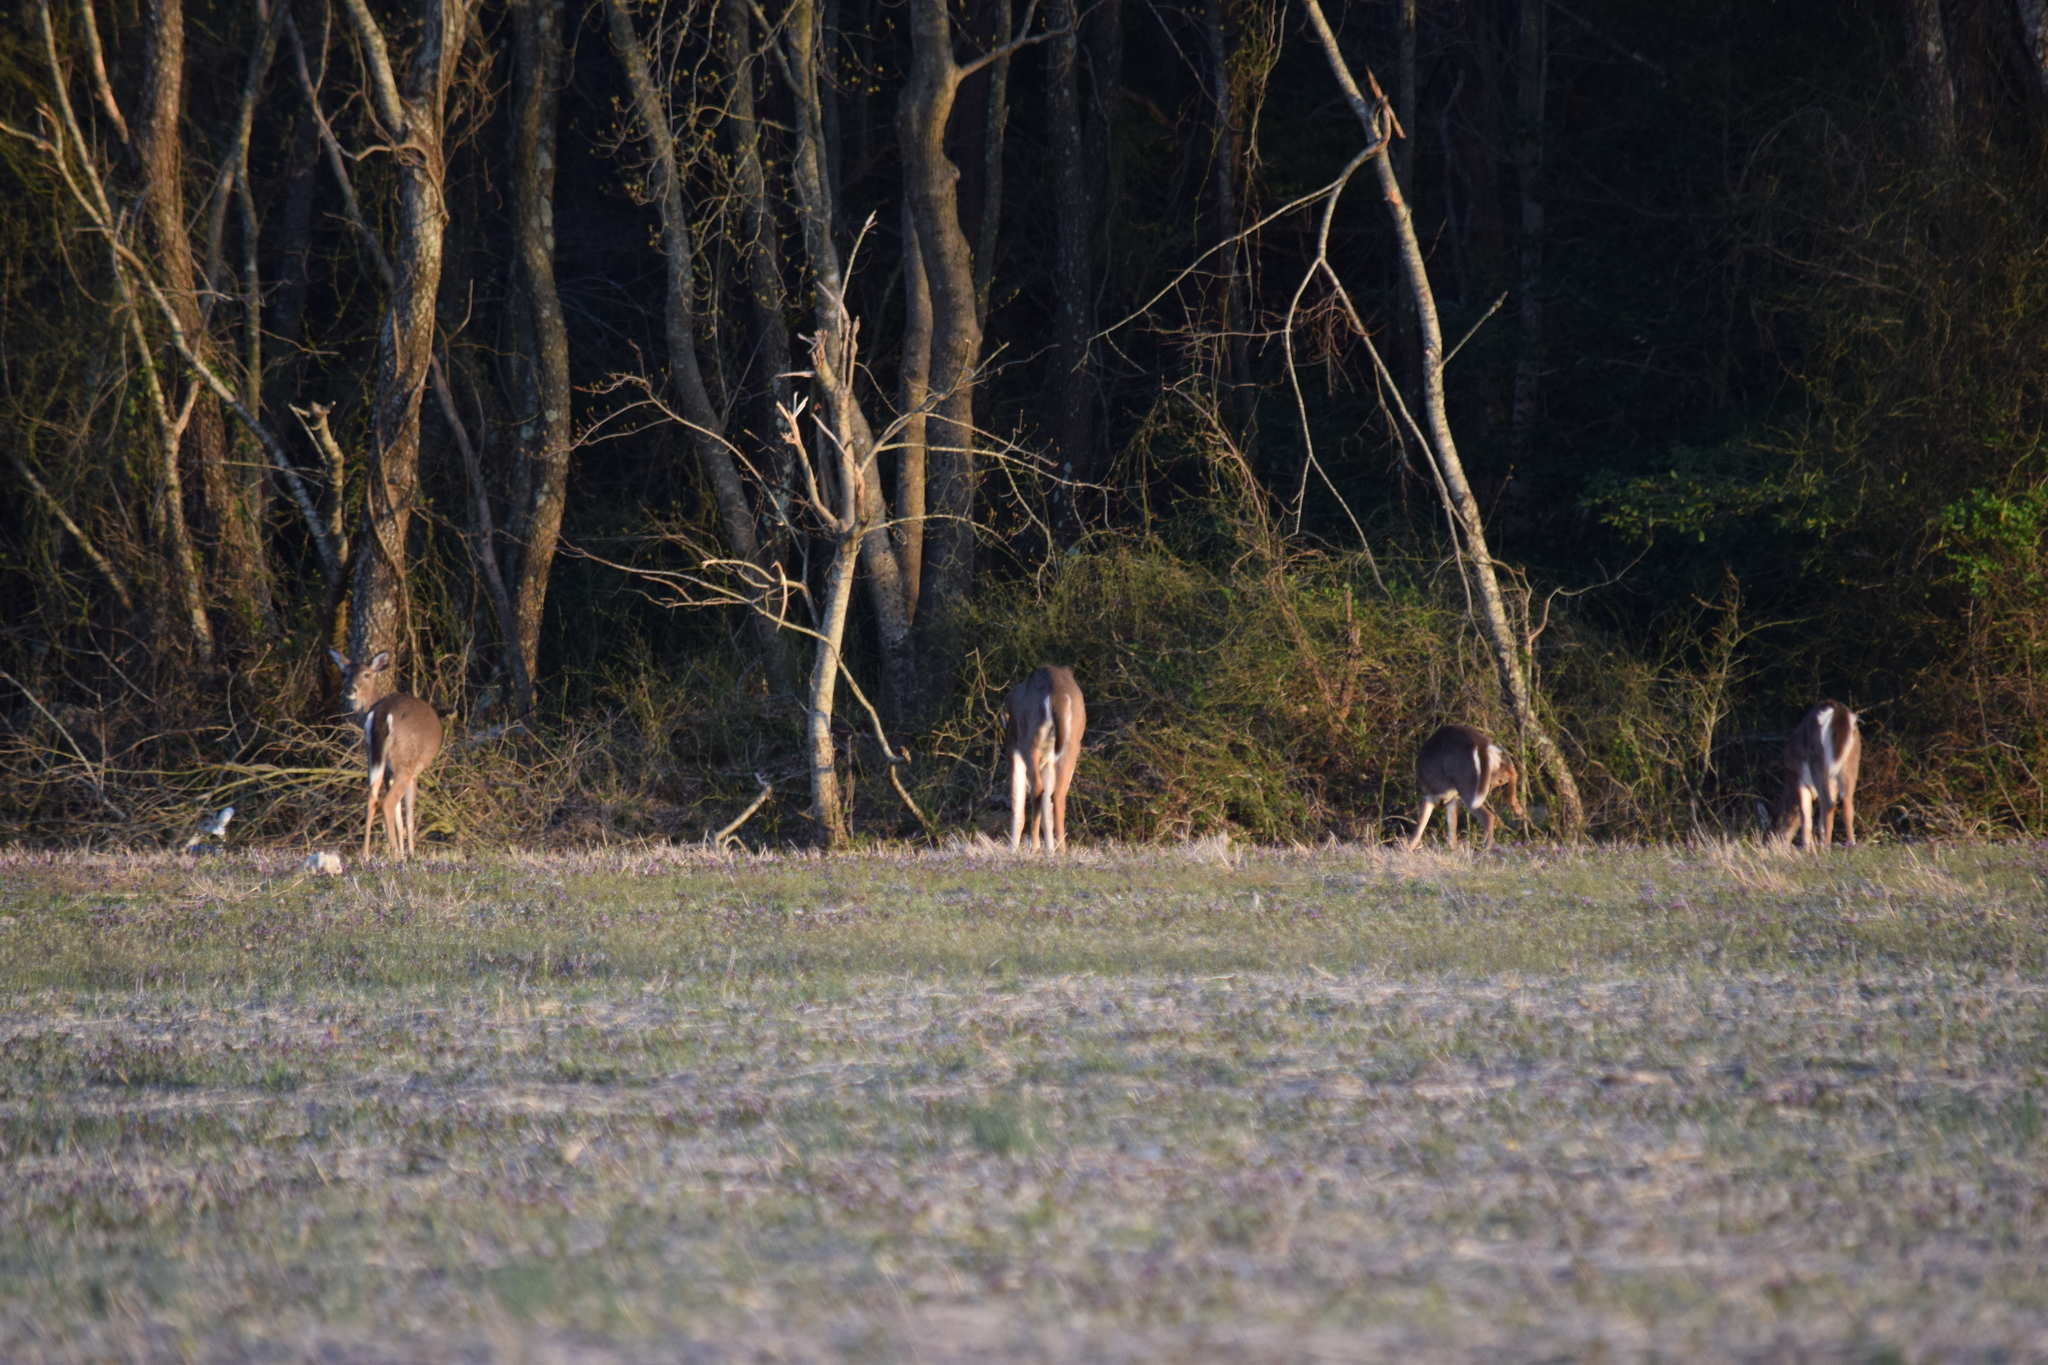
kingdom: Animalia
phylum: Chordata
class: Mammalia
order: Artiodactyla
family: Cervidae
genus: Odocoileus
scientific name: Odocoileus virginianus
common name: White-tailed deer
